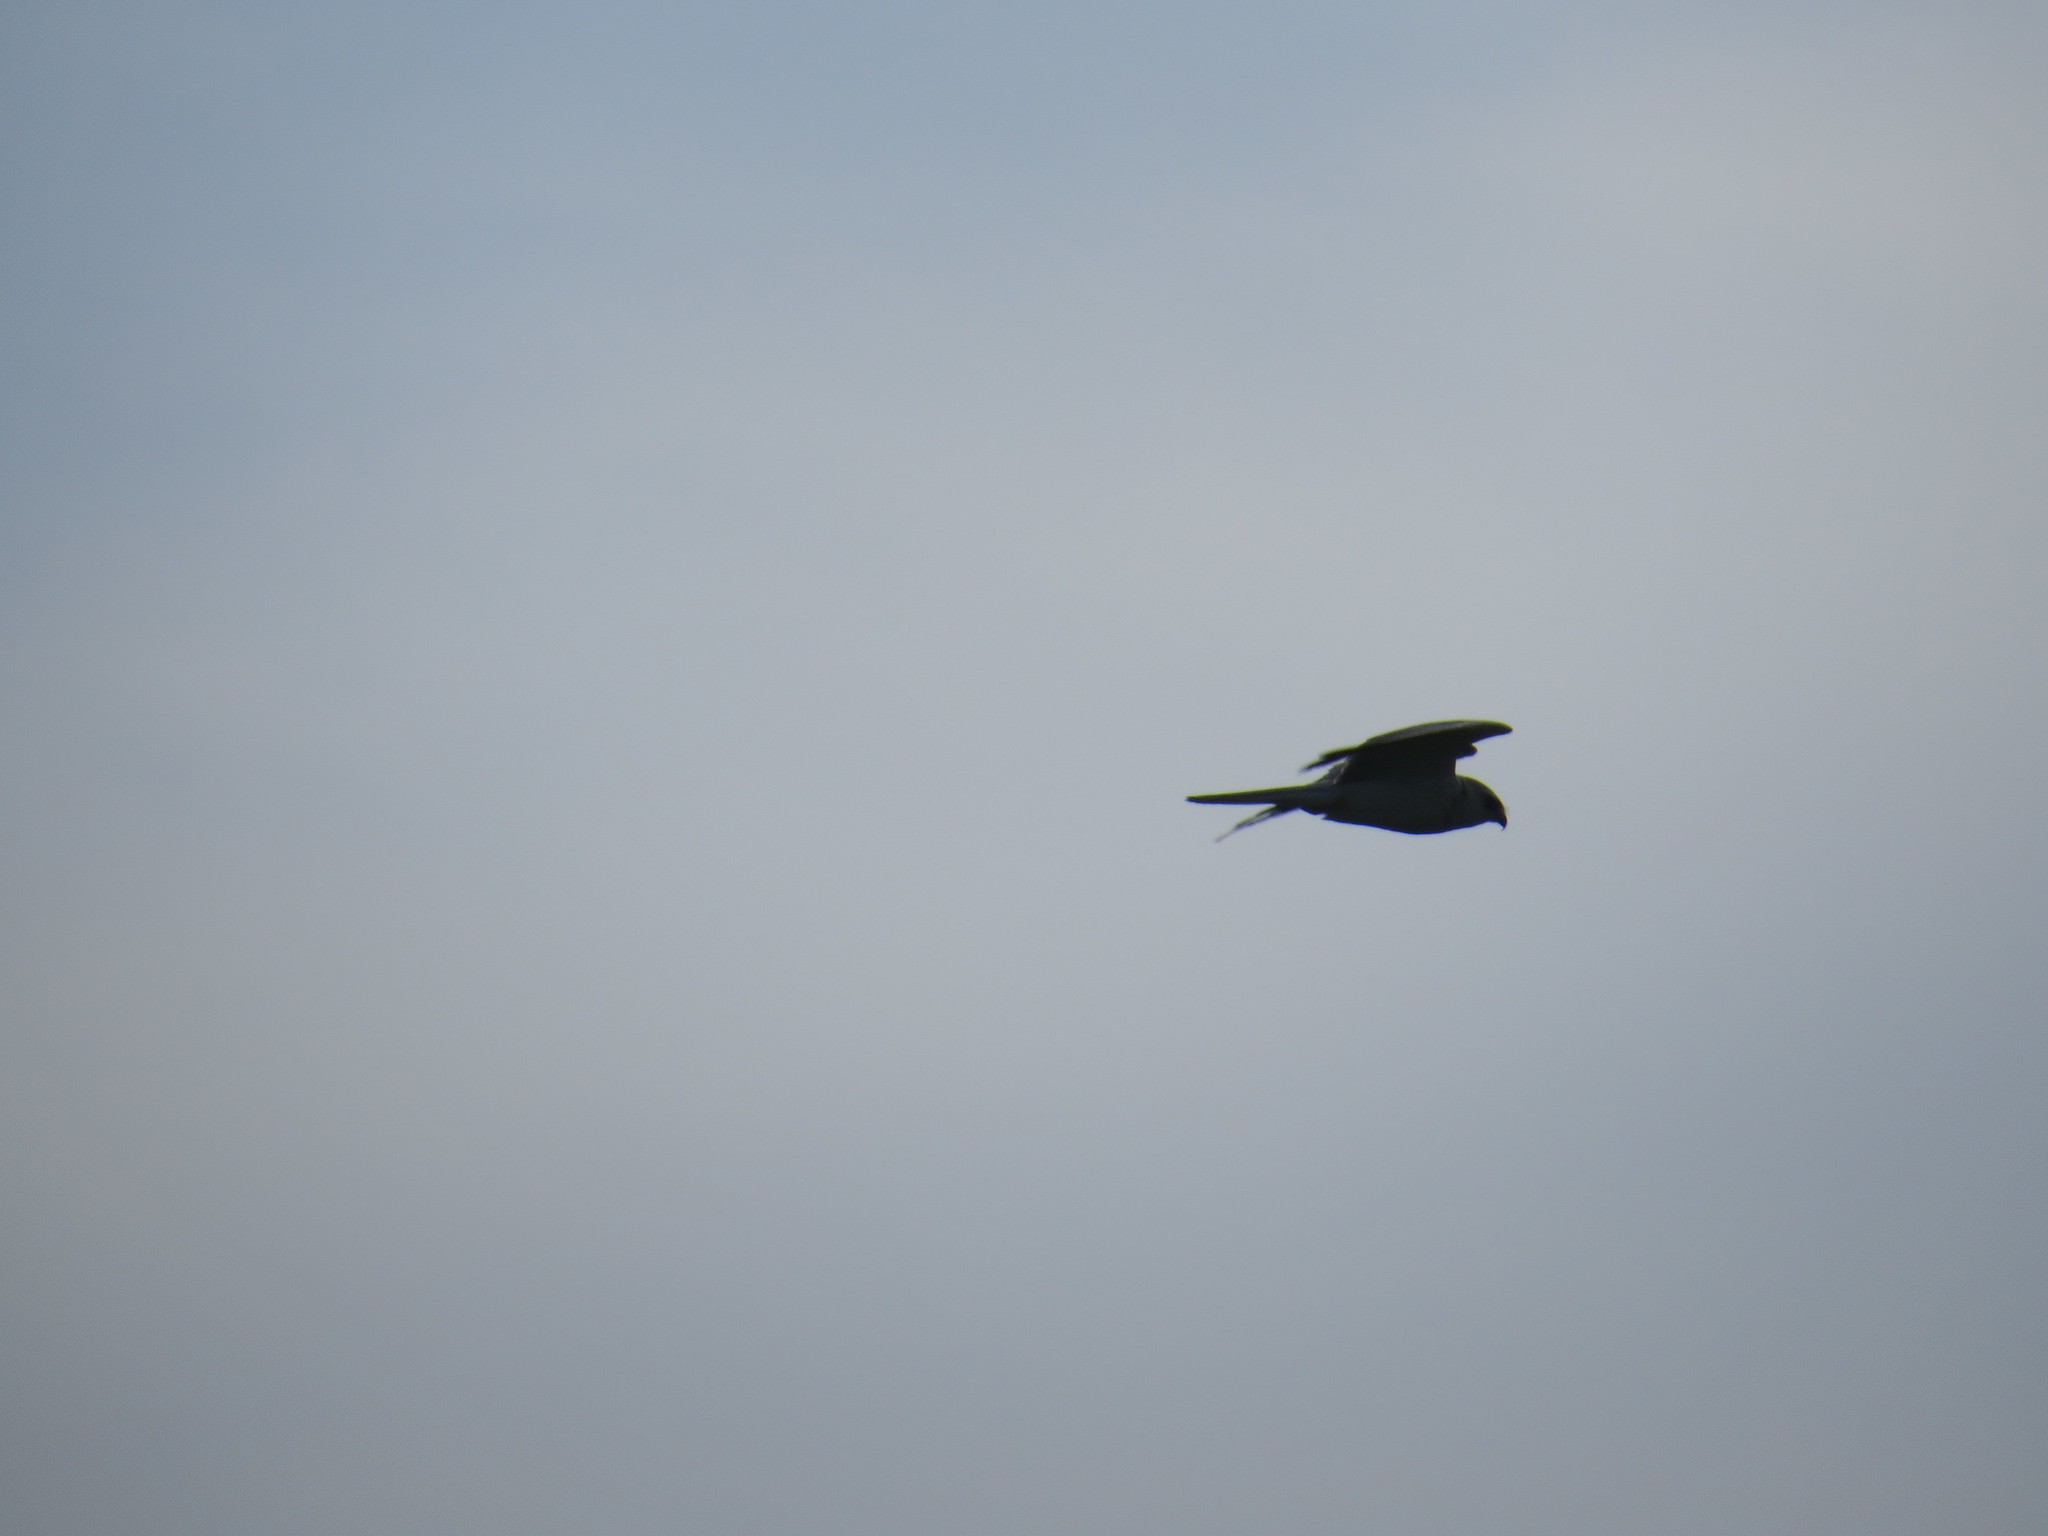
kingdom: Animalia
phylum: Chordata
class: Aves
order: Accipitriformes
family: Accipitridae
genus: Elanus
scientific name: Elanus leucurus
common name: White-tailed kite
